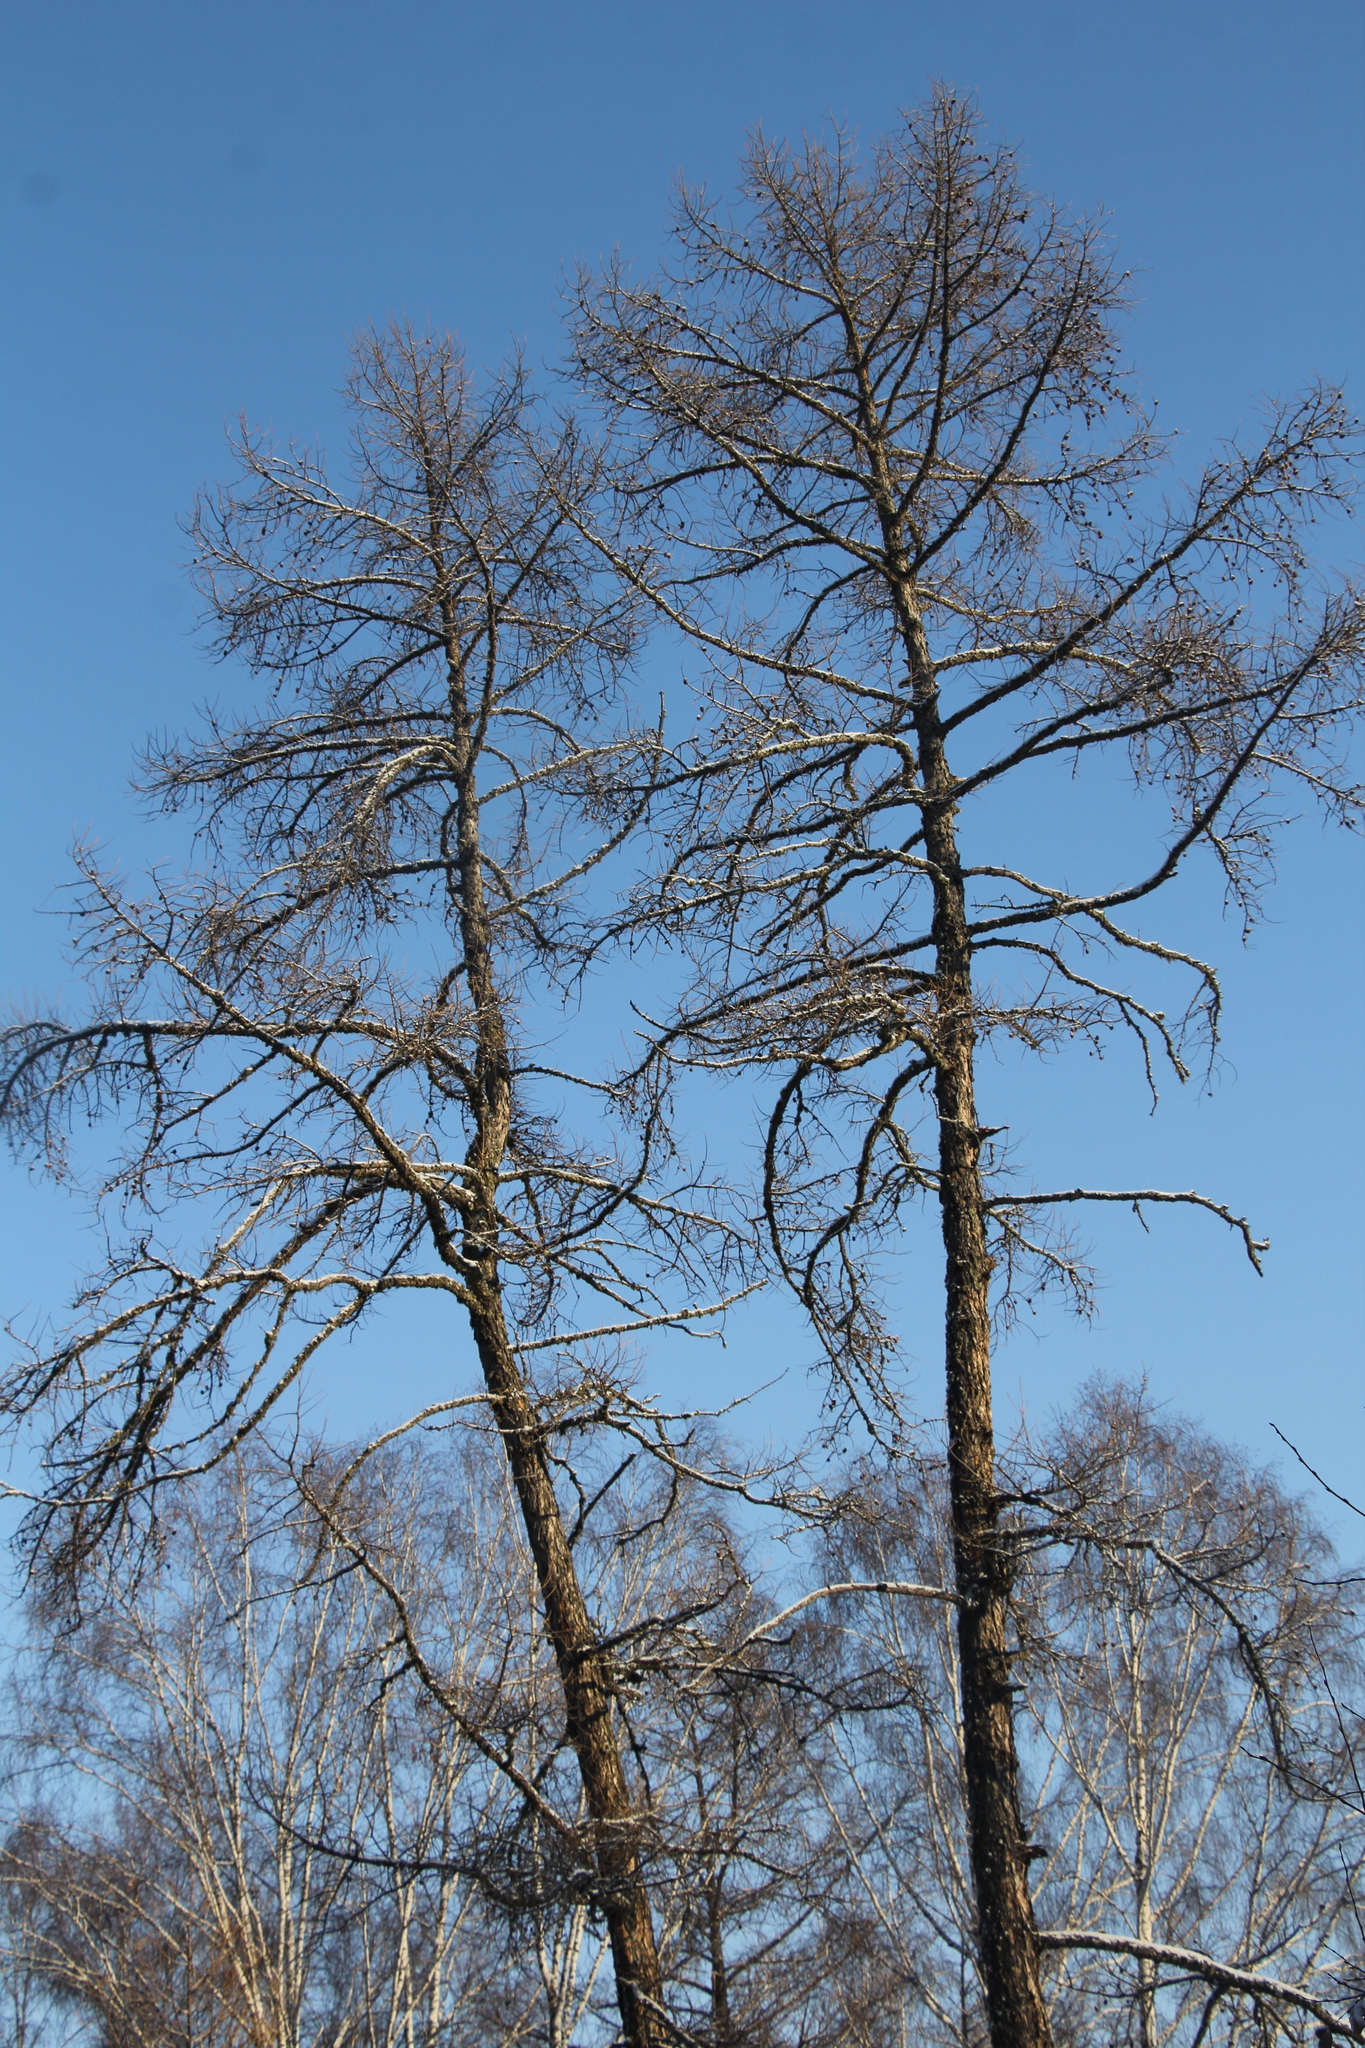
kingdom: Plantae
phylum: Tracheophyta
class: Pinopsida
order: Pinales
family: Pinaceae
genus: Larix
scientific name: Larix sibirica
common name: Siberian larch
